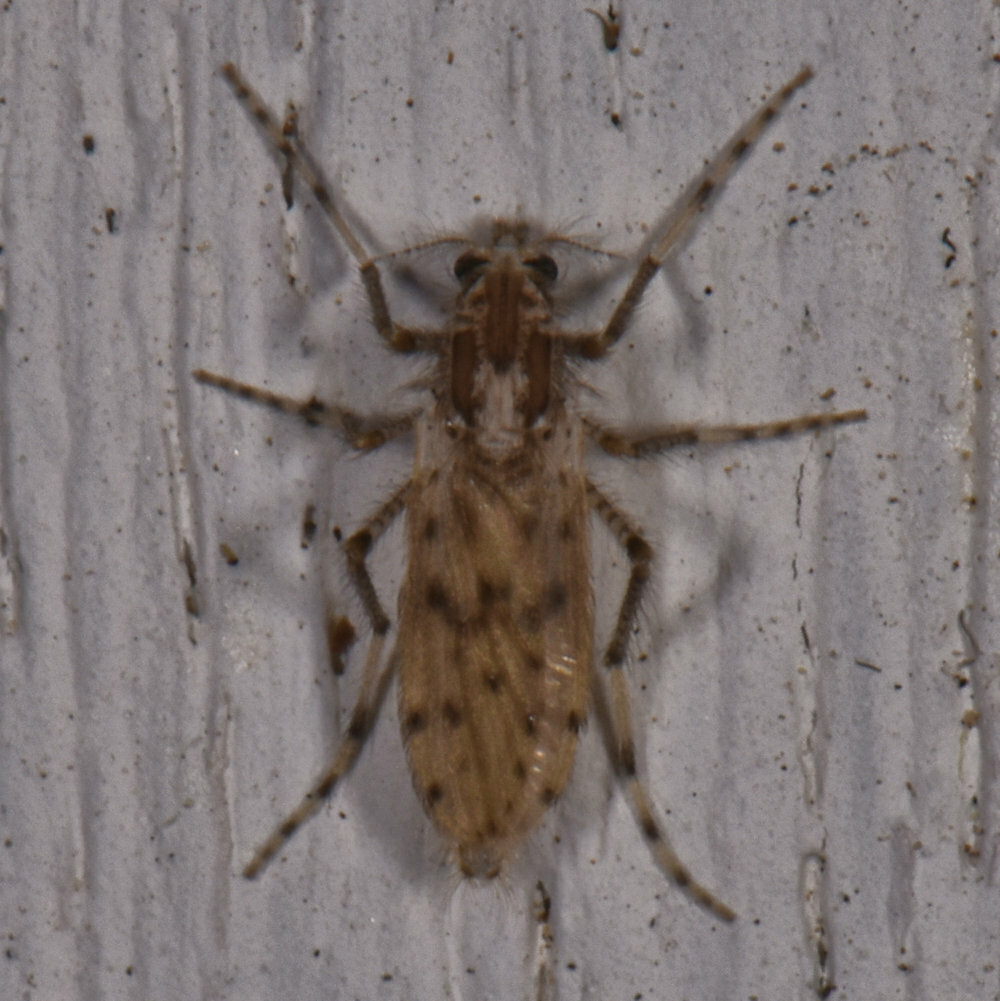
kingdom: Animalia
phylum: Arthropoda
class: Insecta
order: Diptera
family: Chaoboridae
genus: Chaoborus
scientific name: Chaoborus punctipennis
